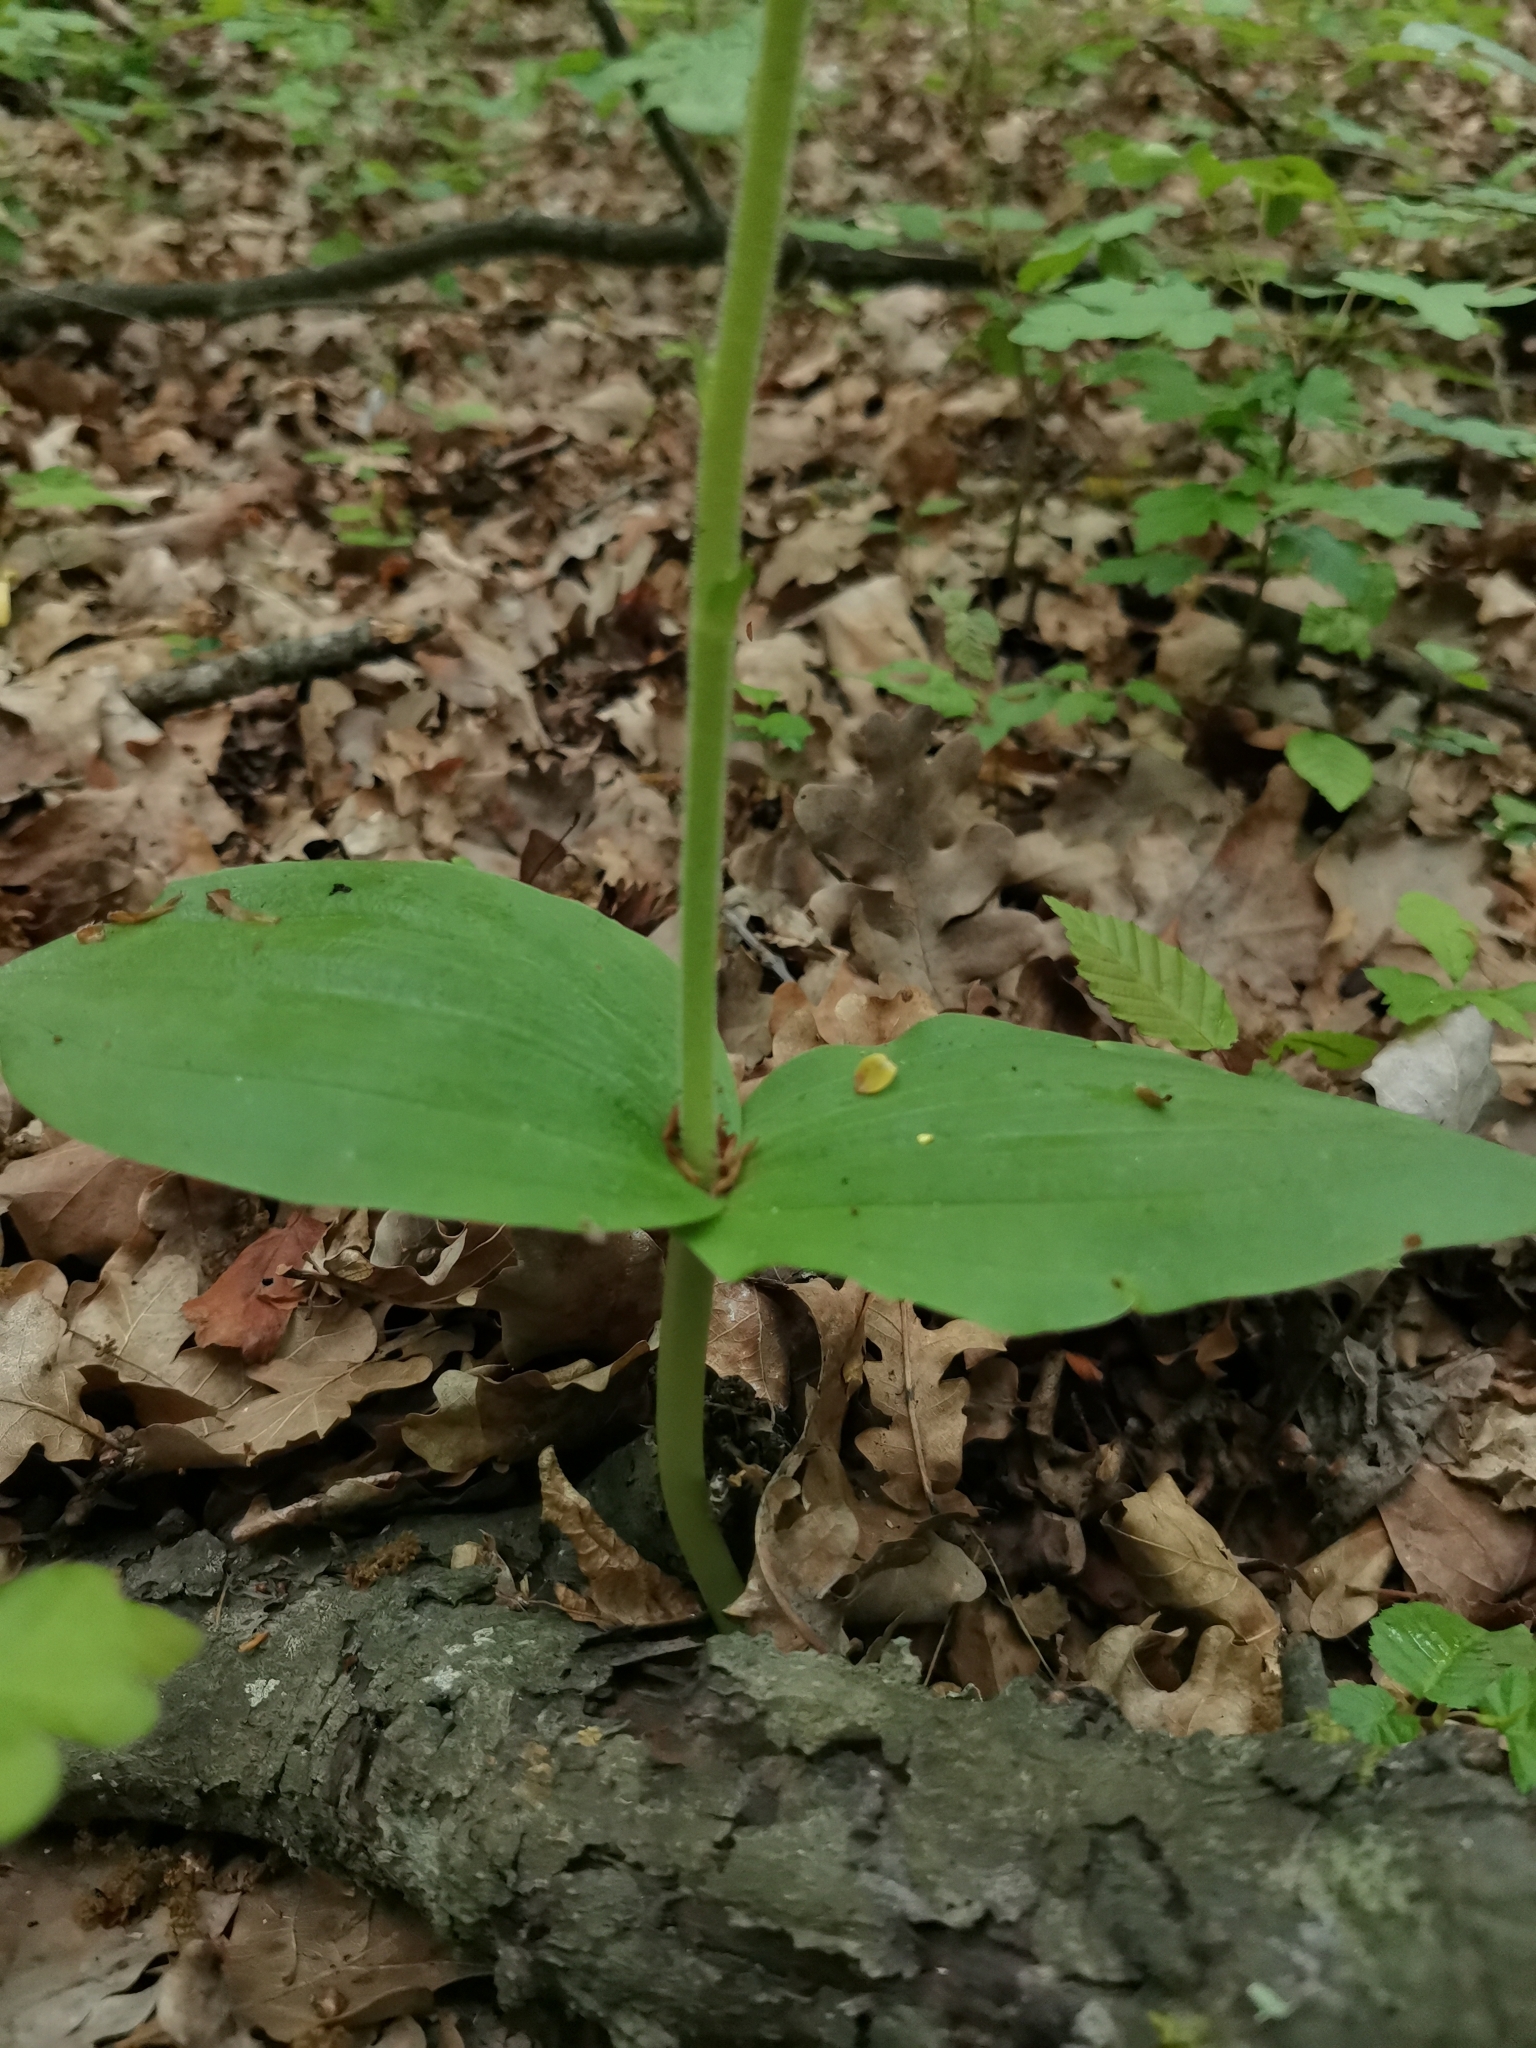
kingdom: Plantae
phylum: Tracheophyta
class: Liliopsida
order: Asparagales
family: Orchidaceae
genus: Neottia
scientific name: Neottia ovata
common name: Common twayblade
